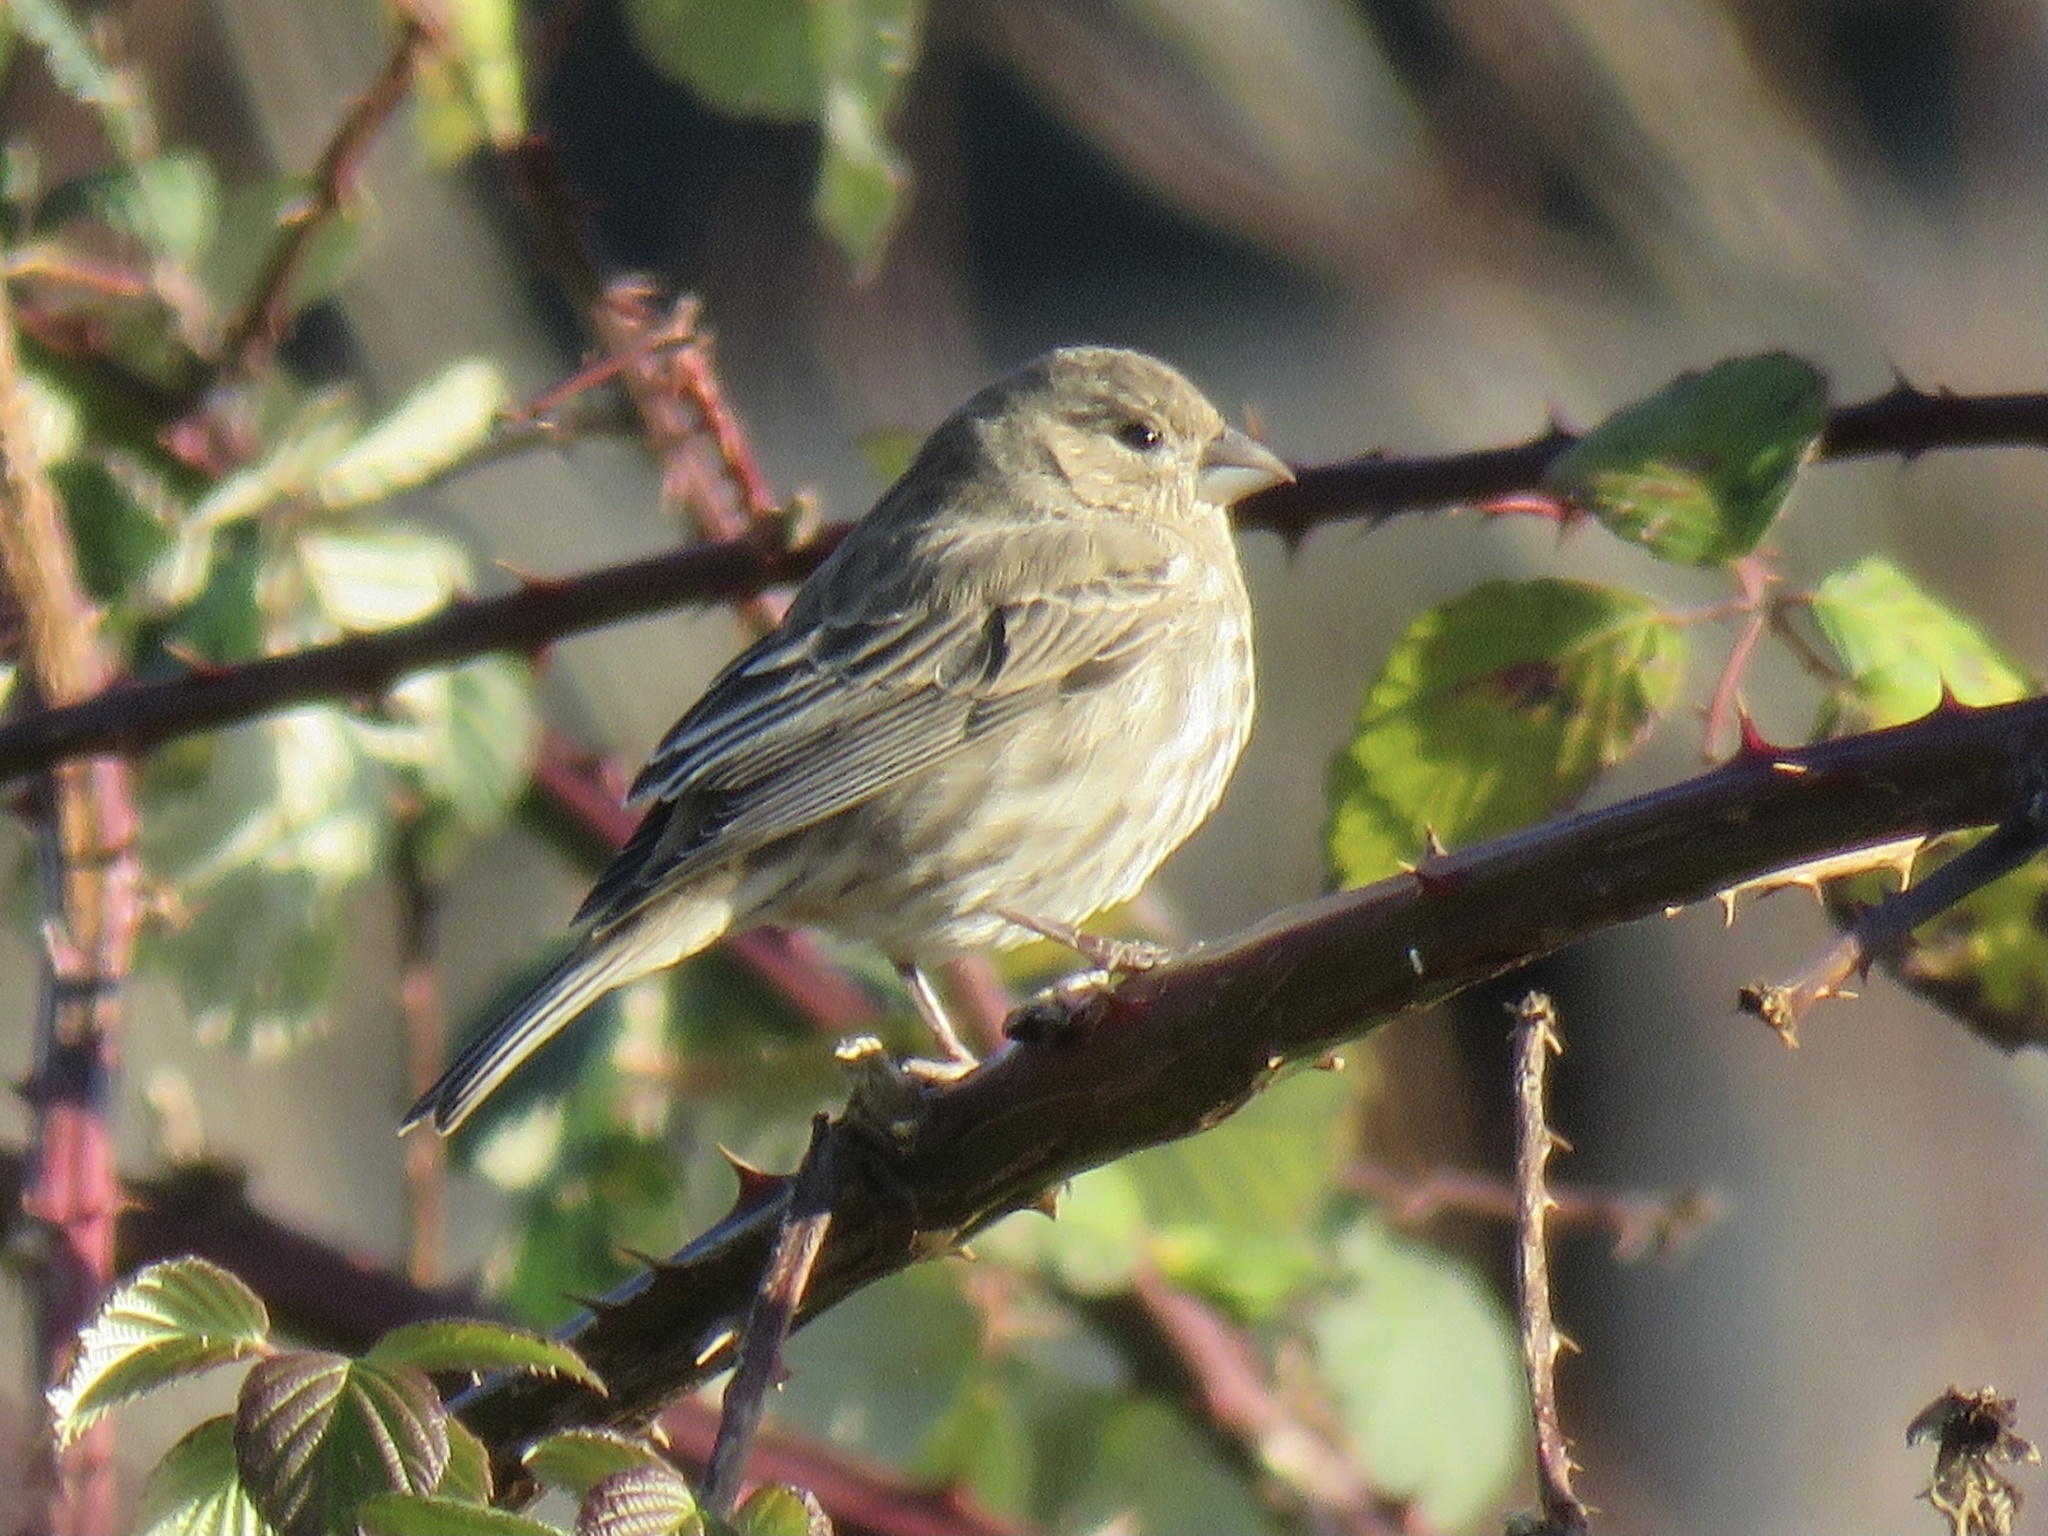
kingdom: Animalia
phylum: Chordata
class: Aves
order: Passeriformes
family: Fringillidae
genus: Haemorhous
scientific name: Haemorhous mexicanus
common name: House finch
